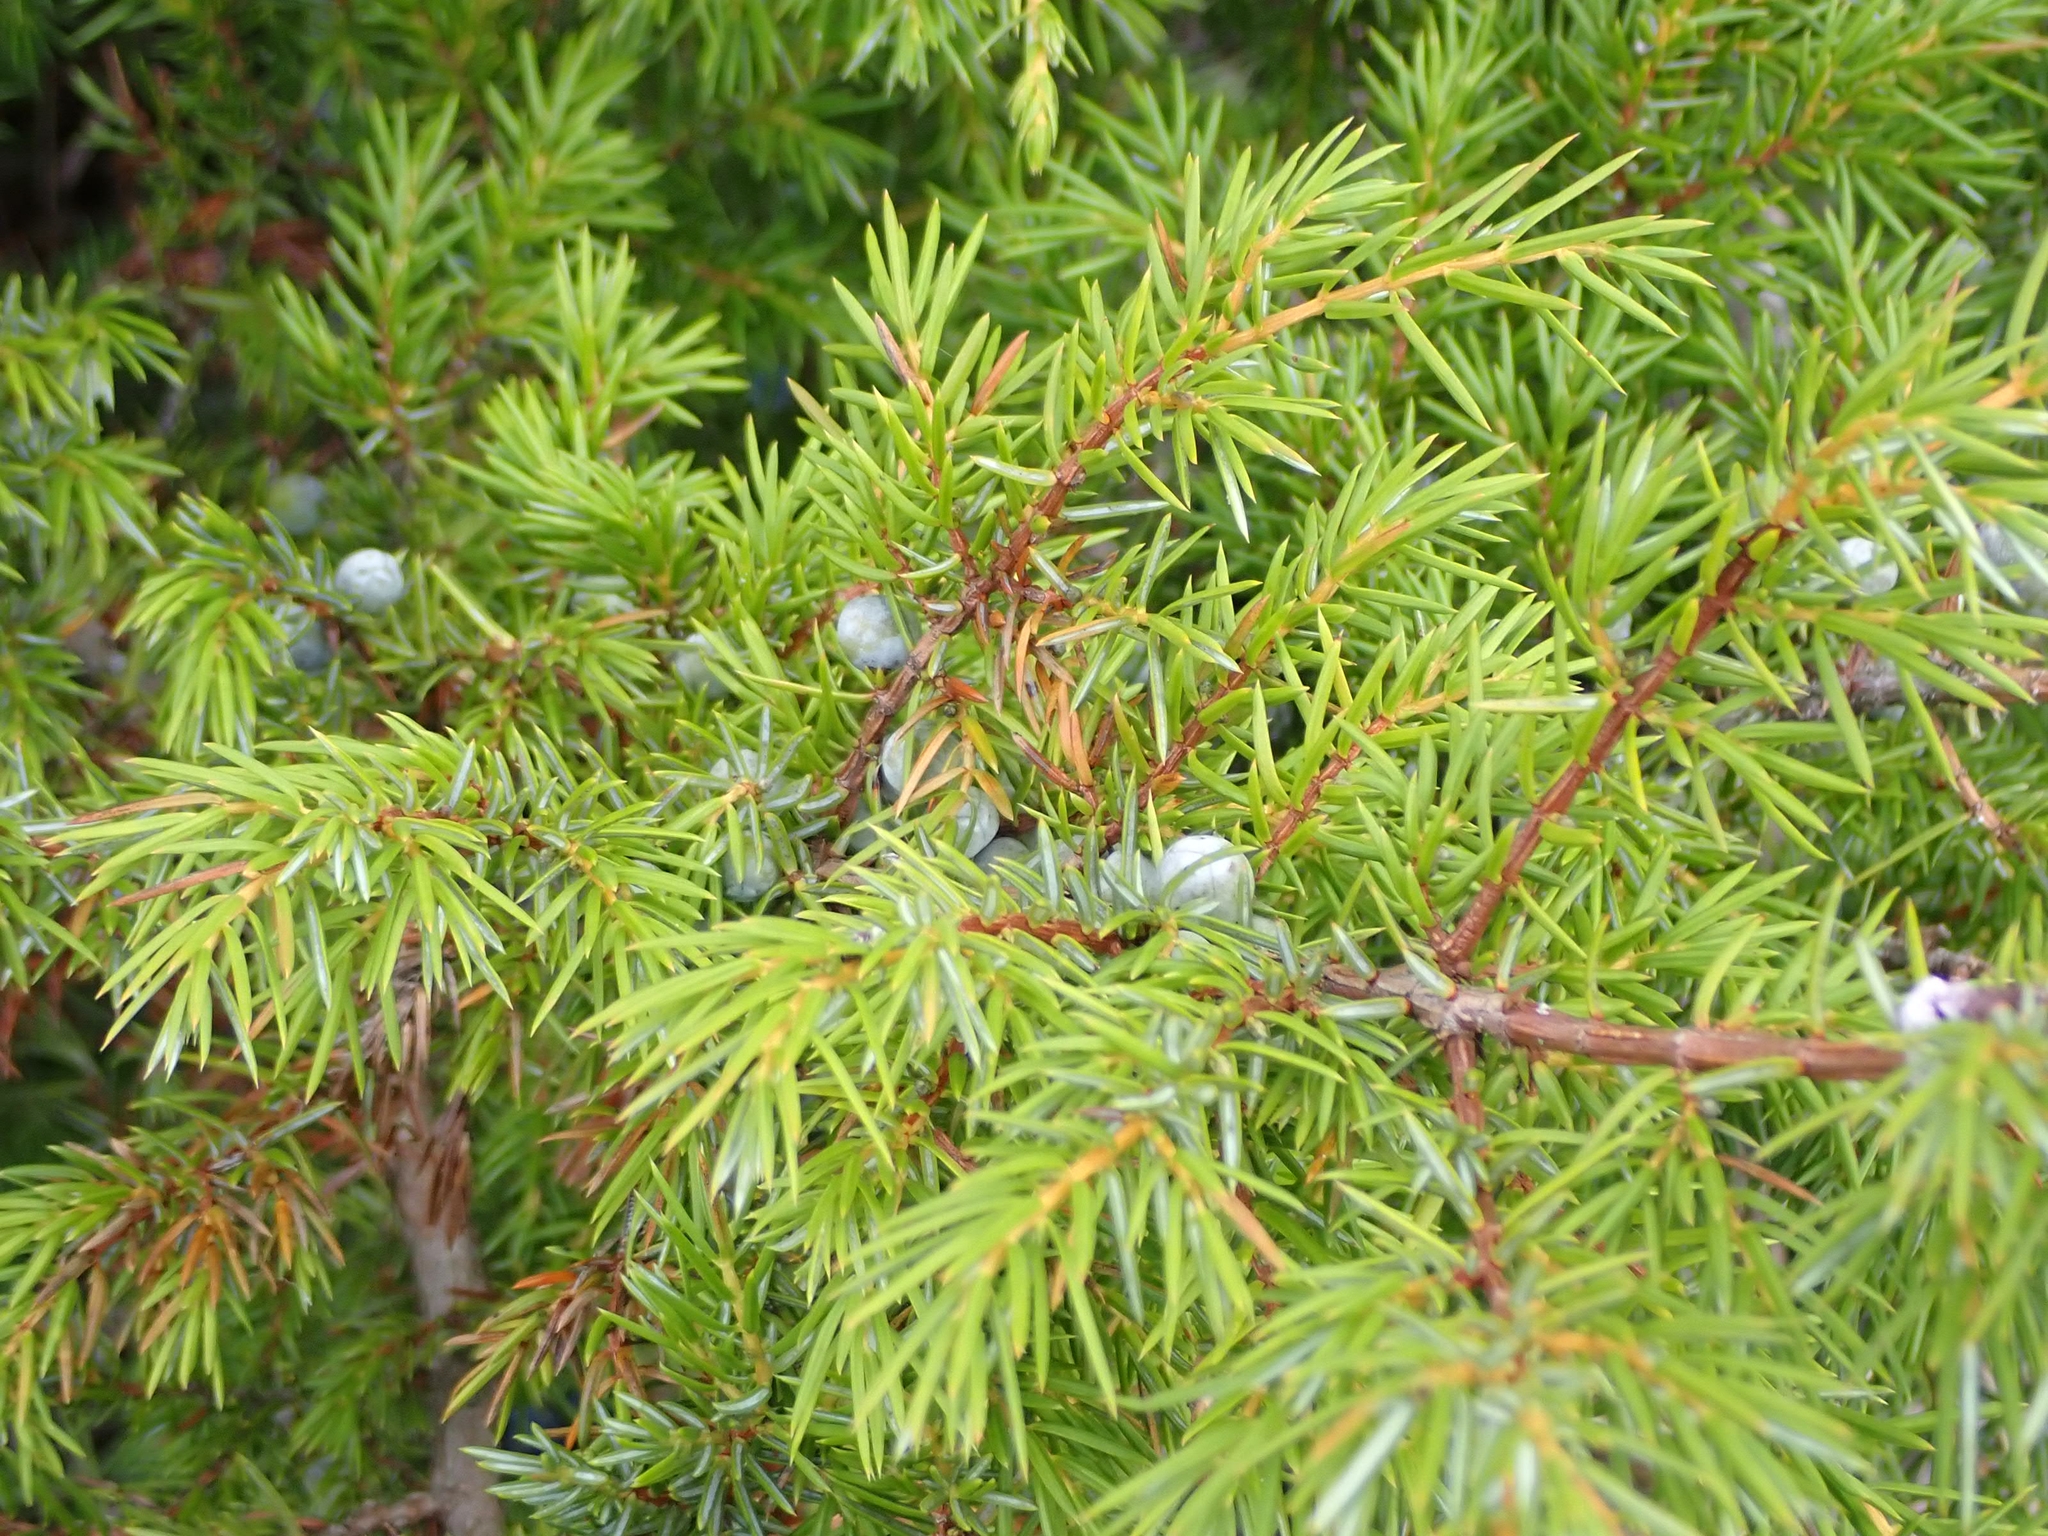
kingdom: Plantae
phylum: Tracheophyta
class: Pinopsida
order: Pinales
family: Cupressaceae
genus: Juniperus
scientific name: Juniperus communis
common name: Common juniper
